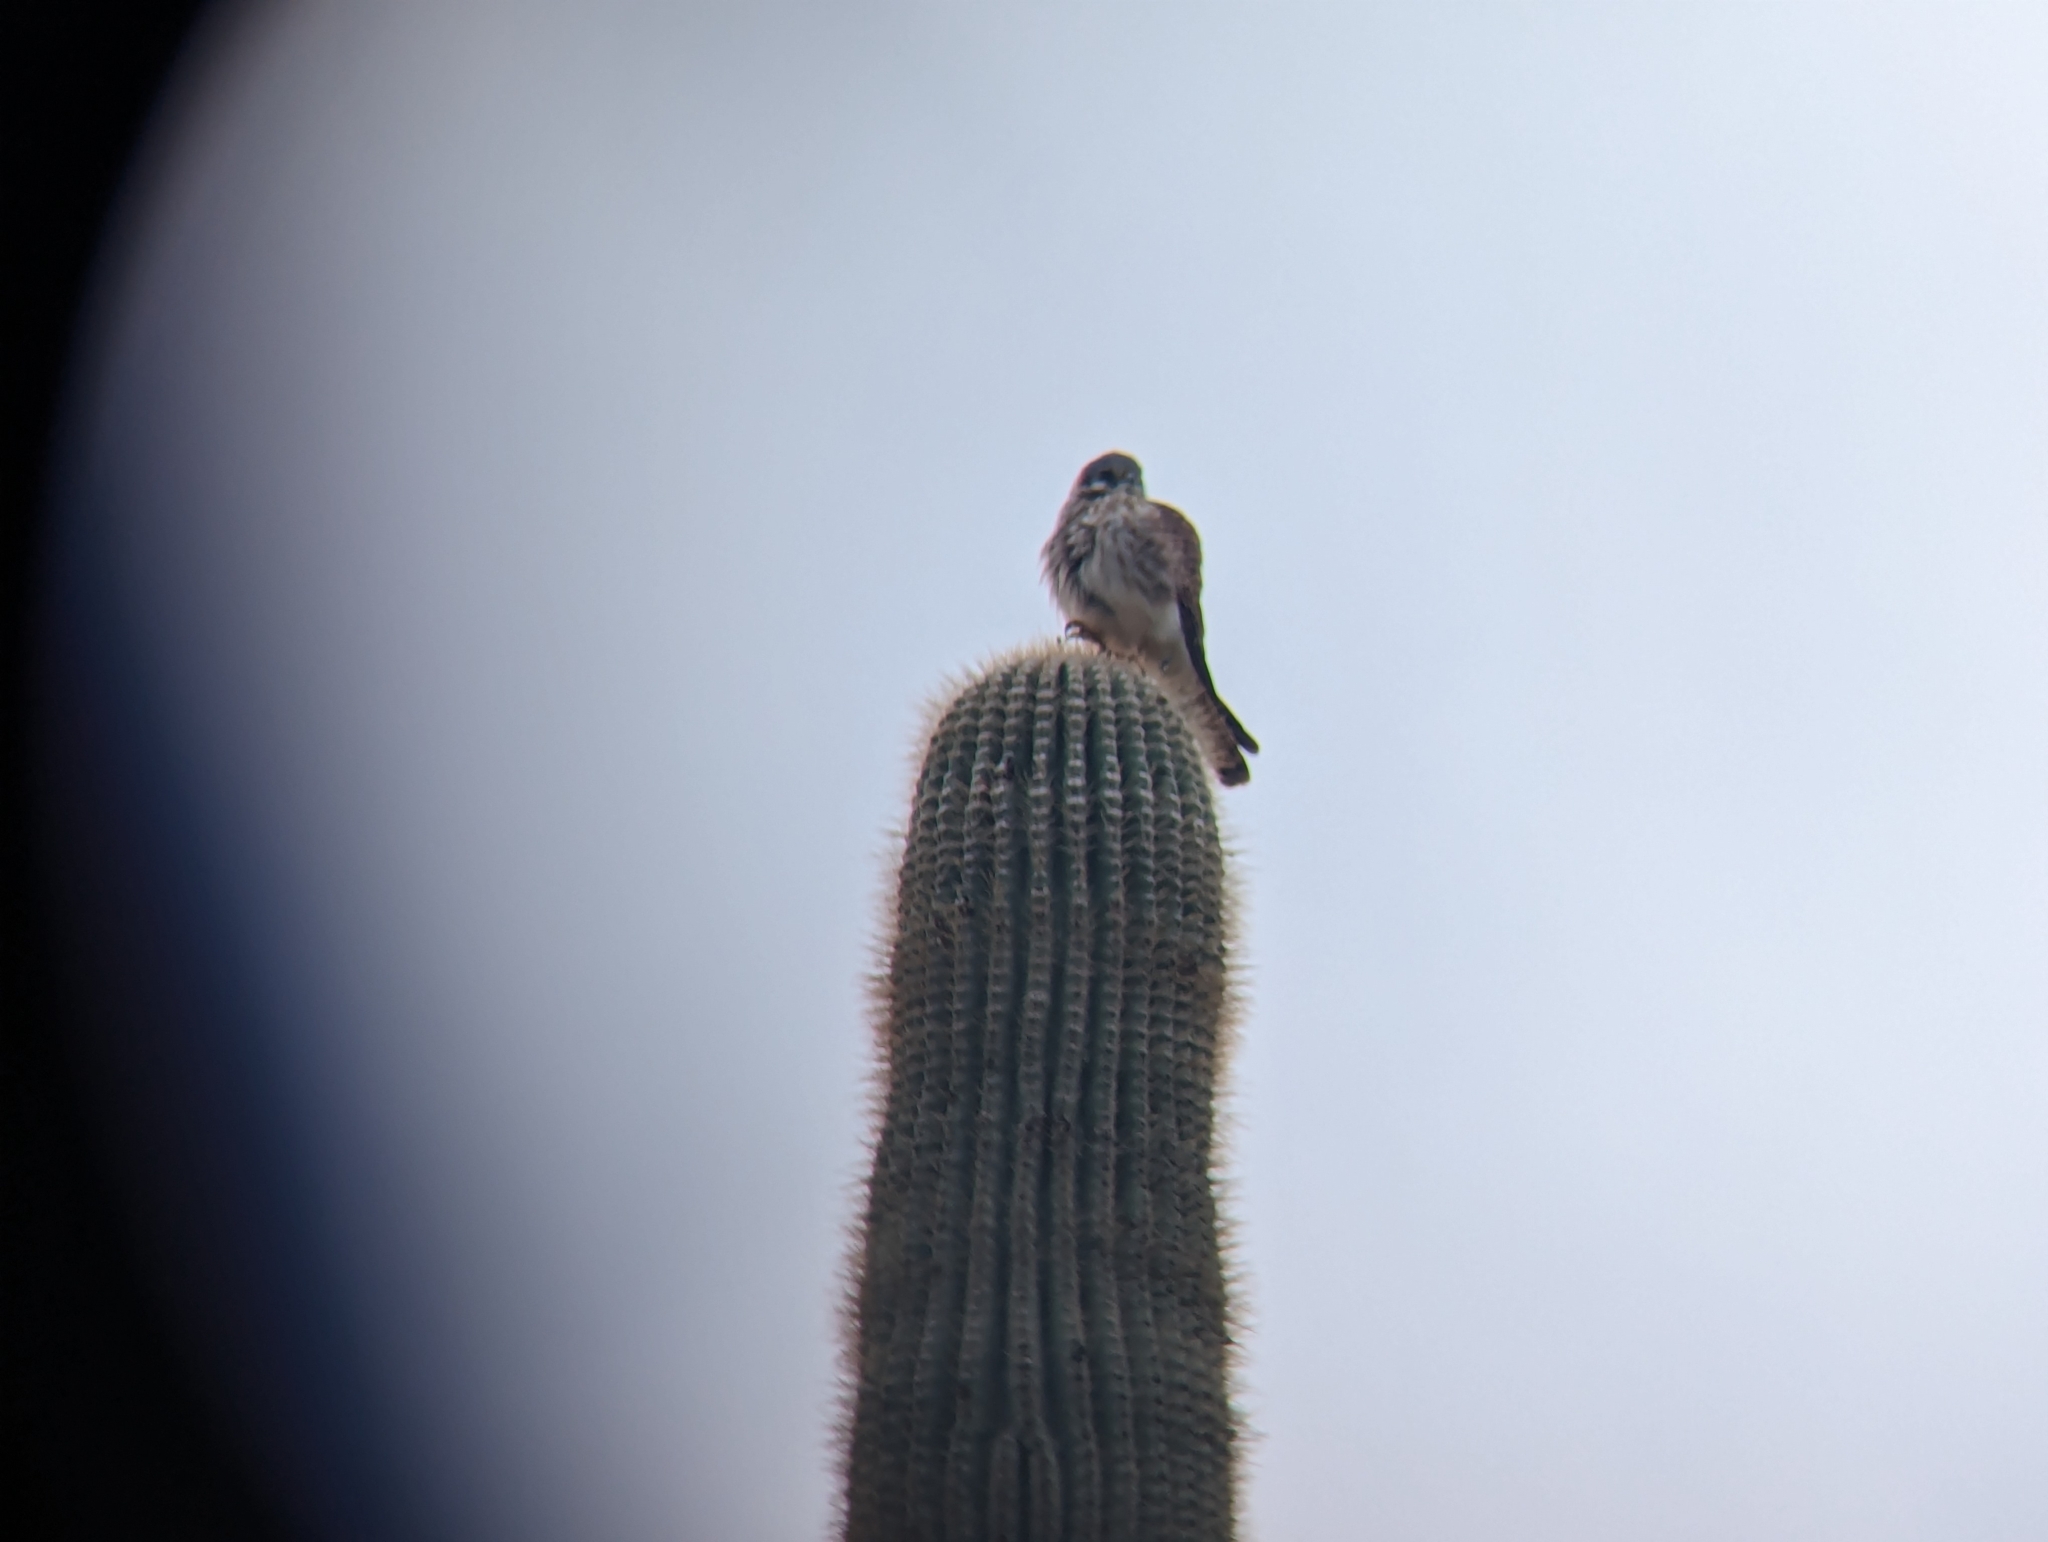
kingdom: Animalia
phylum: Chordata
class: Aves
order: Falconiformes
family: Falconidae
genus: Falco
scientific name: Falco sparverius
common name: American kestrel
